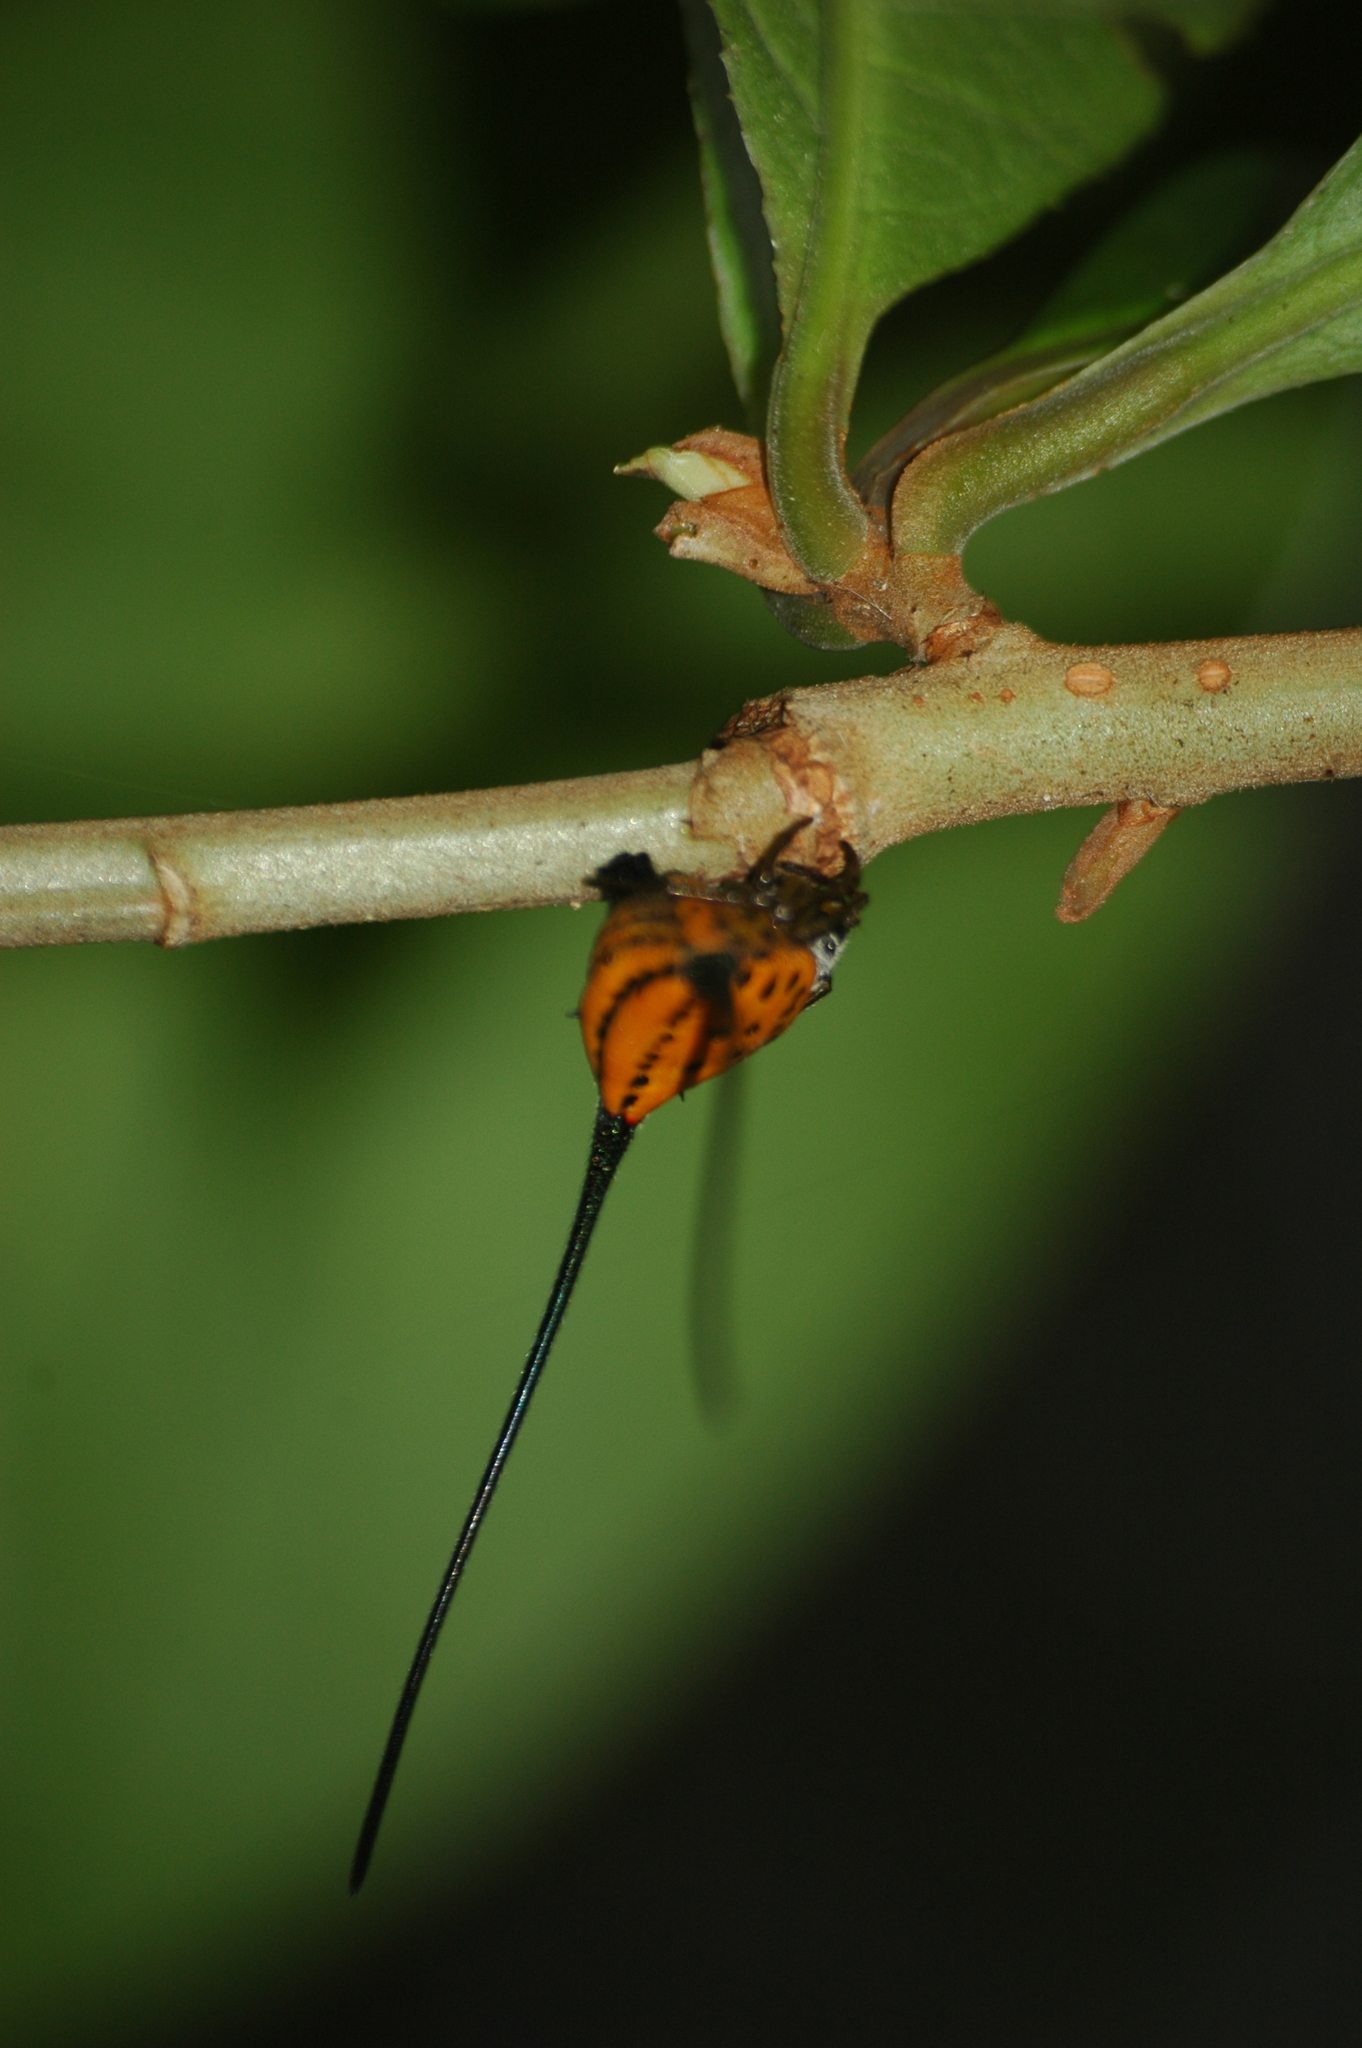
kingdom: Animalia
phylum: Arthropoda
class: Arachnida
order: Araneae
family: Araneidae
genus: Macracantha
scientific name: Macracantha arcuata
